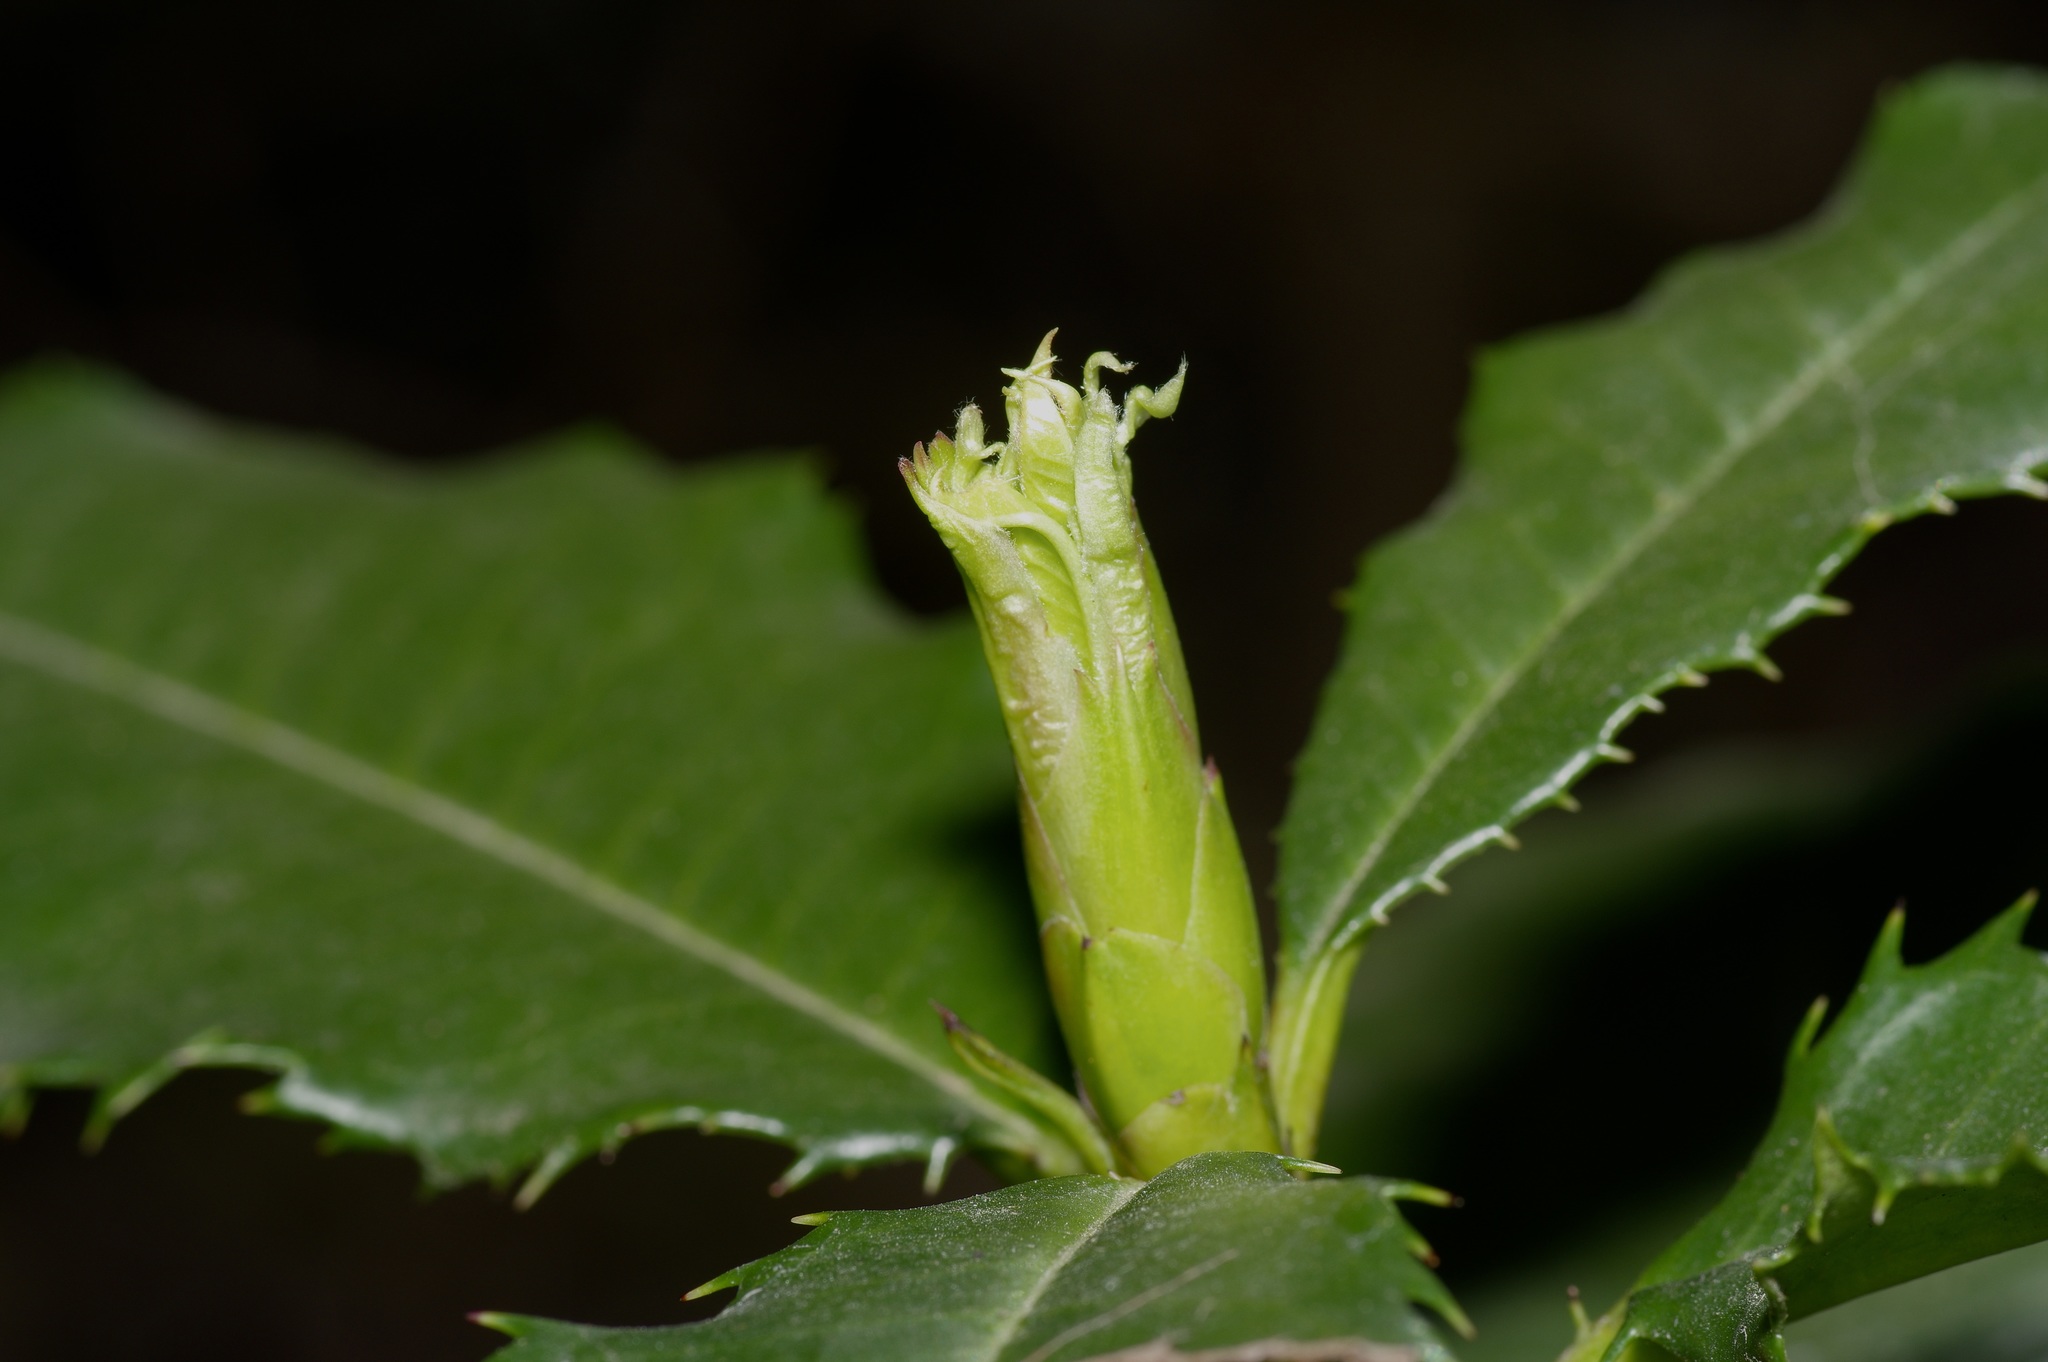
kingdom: Plantae
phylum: Tracheophyta
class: Magnoliopsida
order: Rosales
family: Rosaceae
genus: Photinia
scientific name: Photinia serratifolia
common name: Taiwanese photinia
